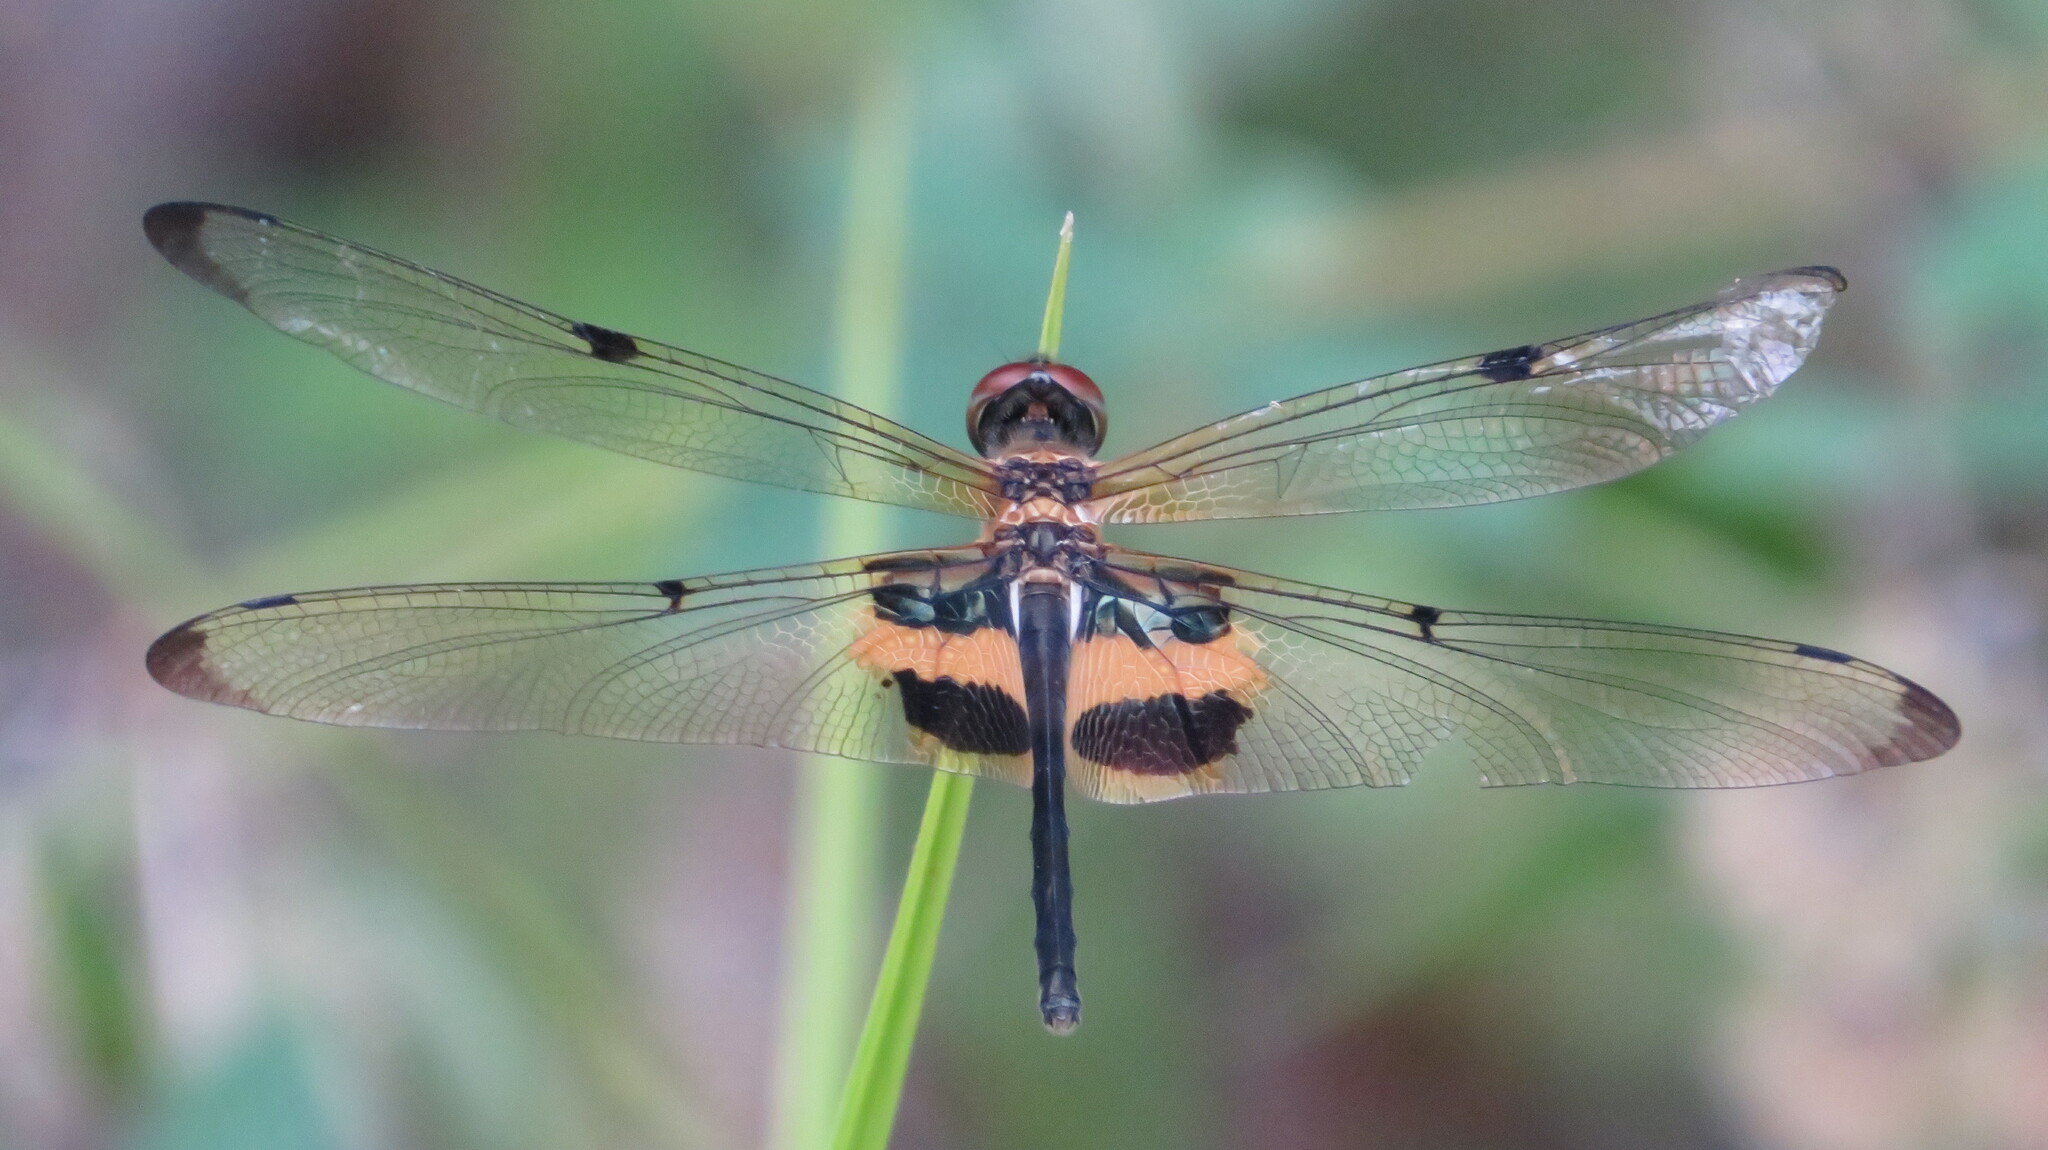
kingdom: Animalia
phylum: Arthropoda
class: Insecta
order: Odonata
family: Libellulidae
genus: Rhyothemis
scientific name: Rhyothemis phyllis
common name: Yellow-barred flutterer
